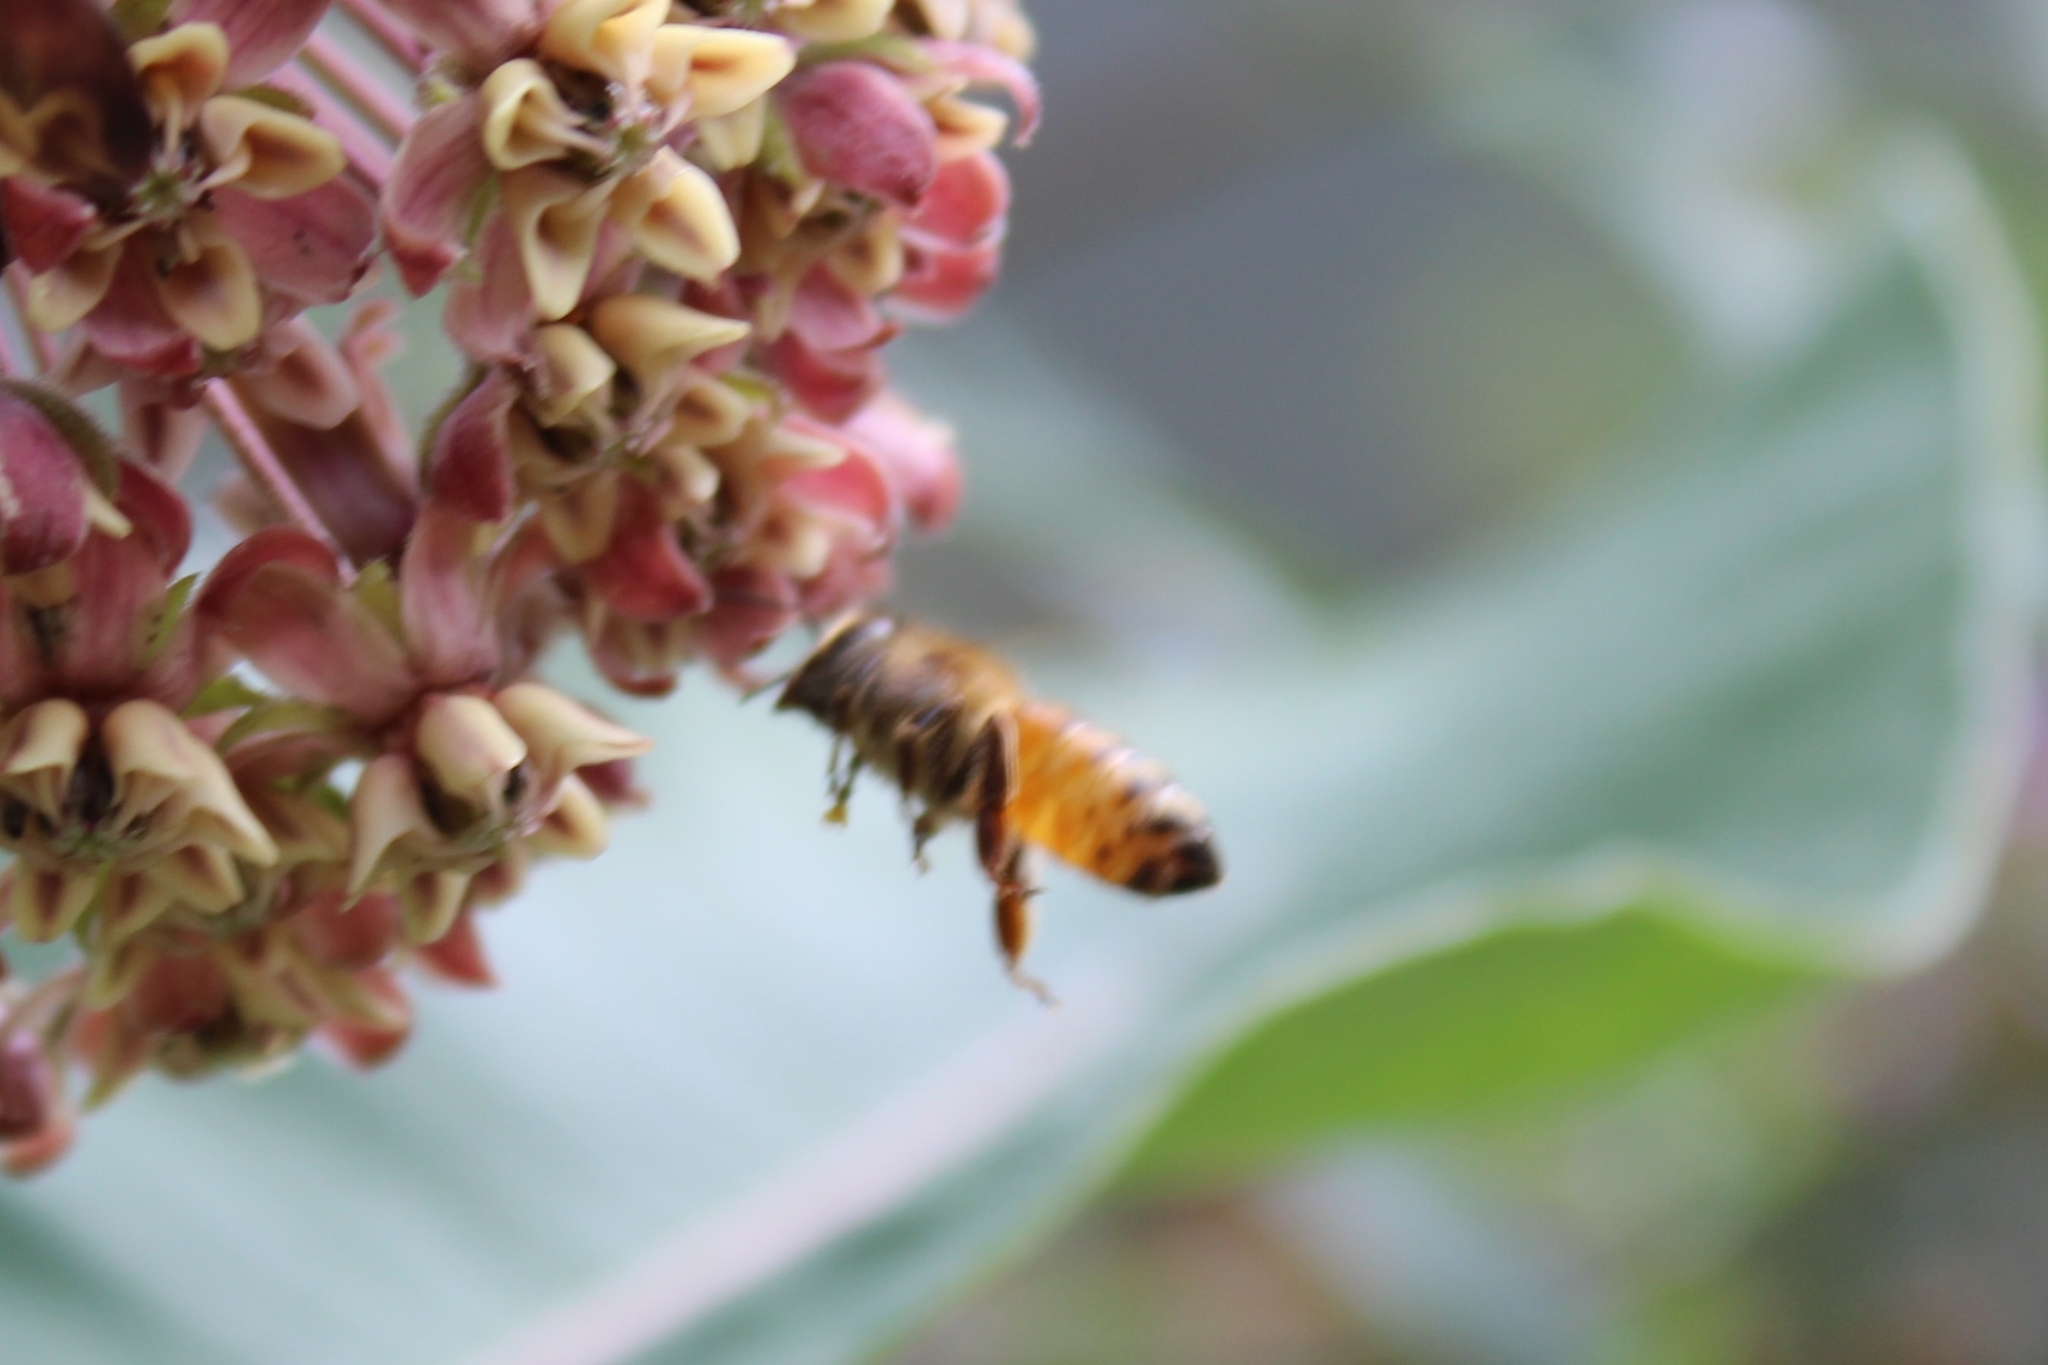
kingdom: Animalia
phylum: Arthropoda
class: Insecta
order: Hymenoptera
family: Apidae
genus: Apis
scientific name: Apis mellifera
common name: Honey bee
